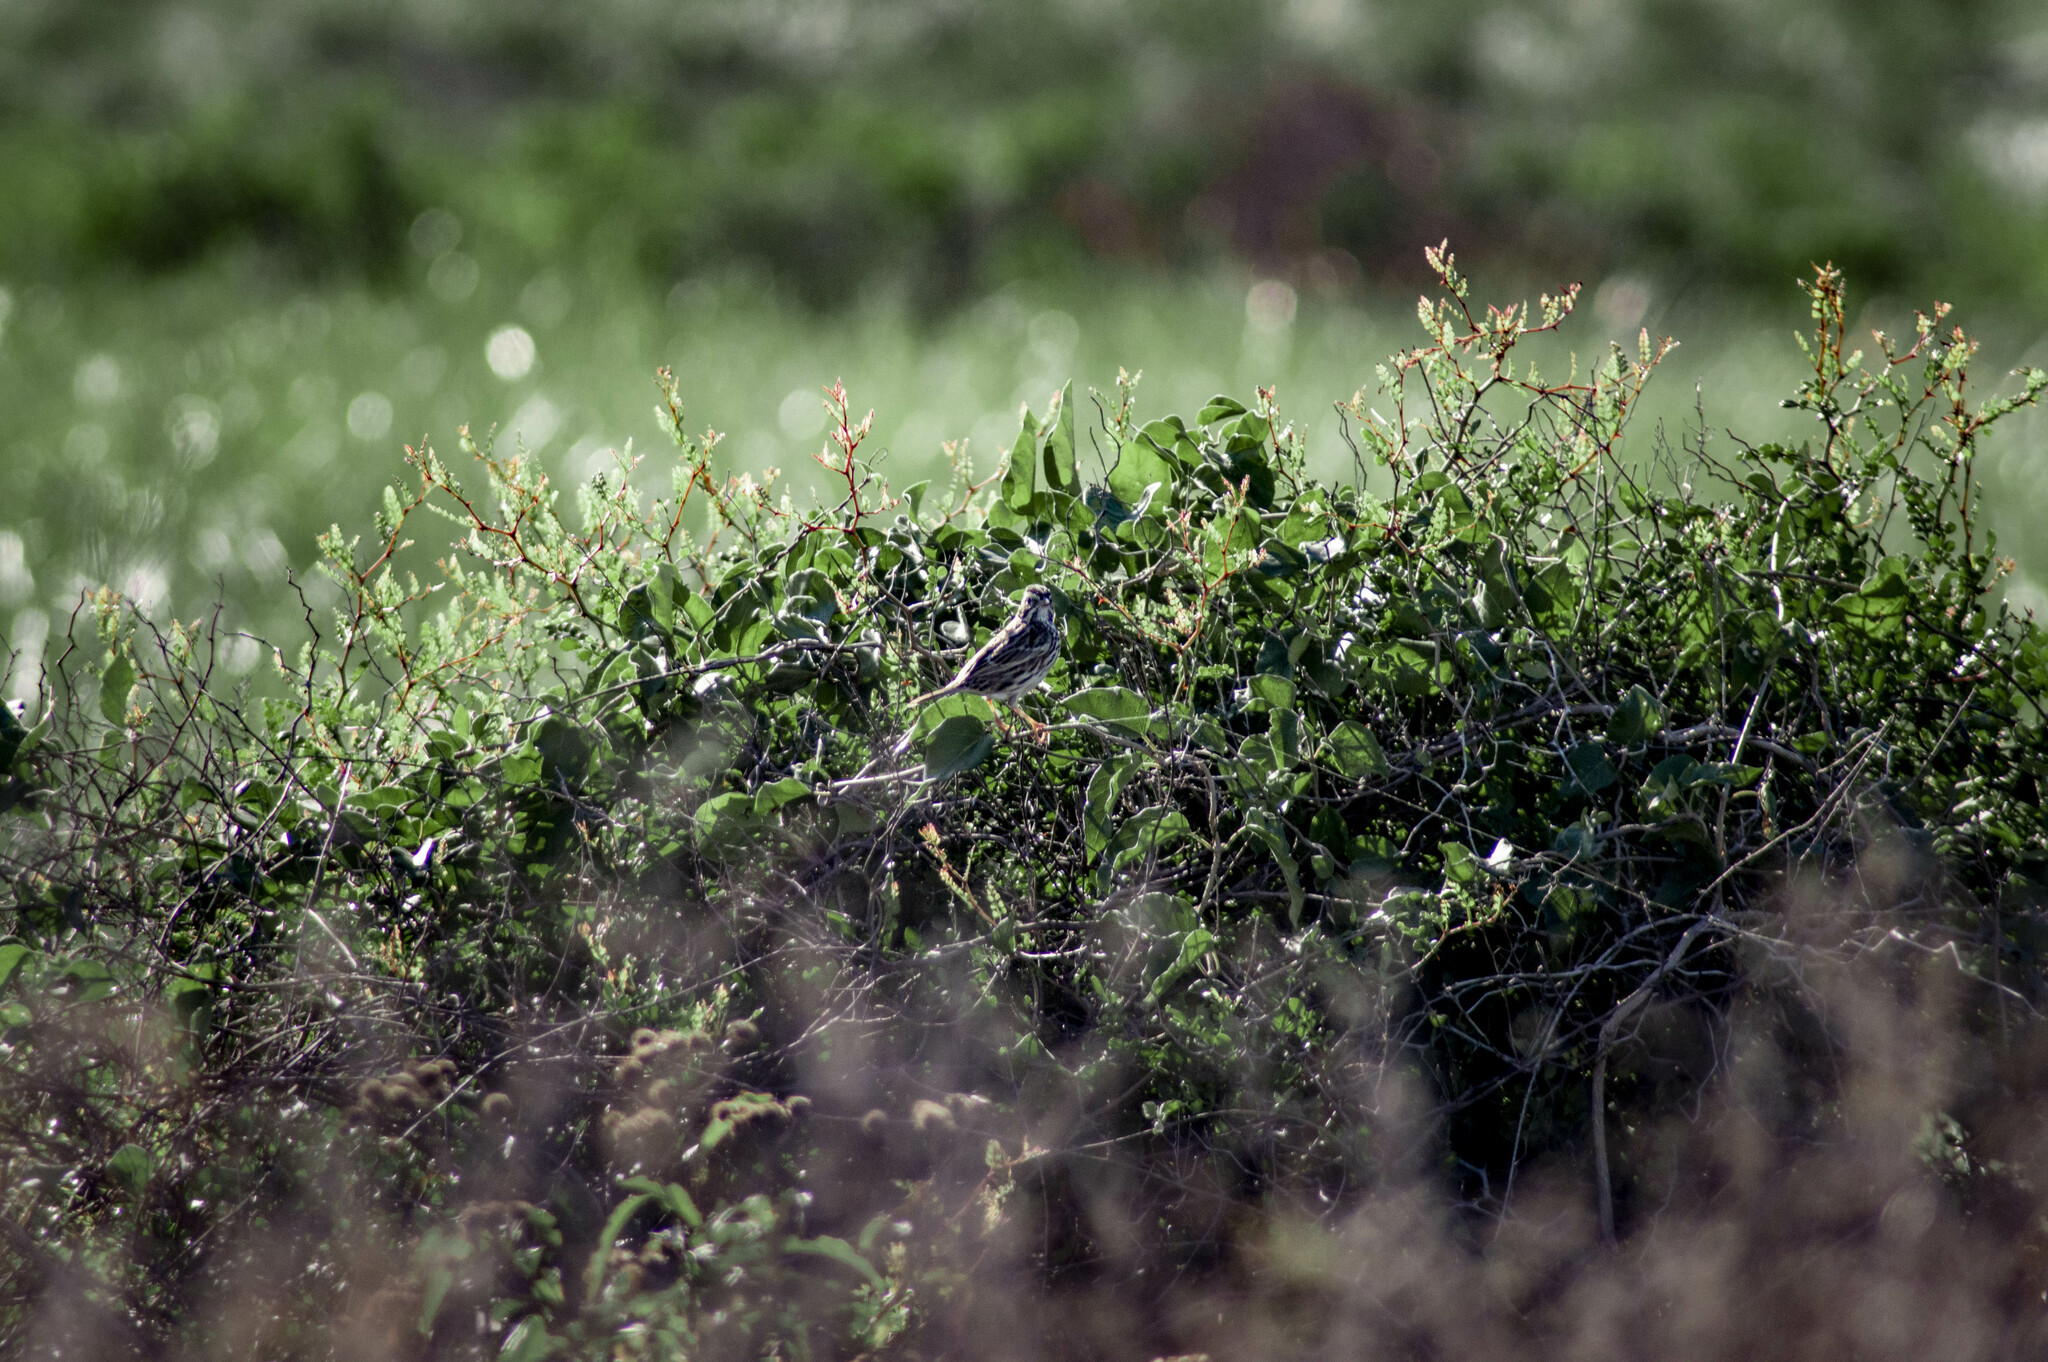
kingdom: Animalia
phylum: Chordata
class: Aves
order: Passeriformes
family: Passerellidae
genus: Passerculus
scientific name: Passerculus sandwichensis
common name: Savannah sparrow
